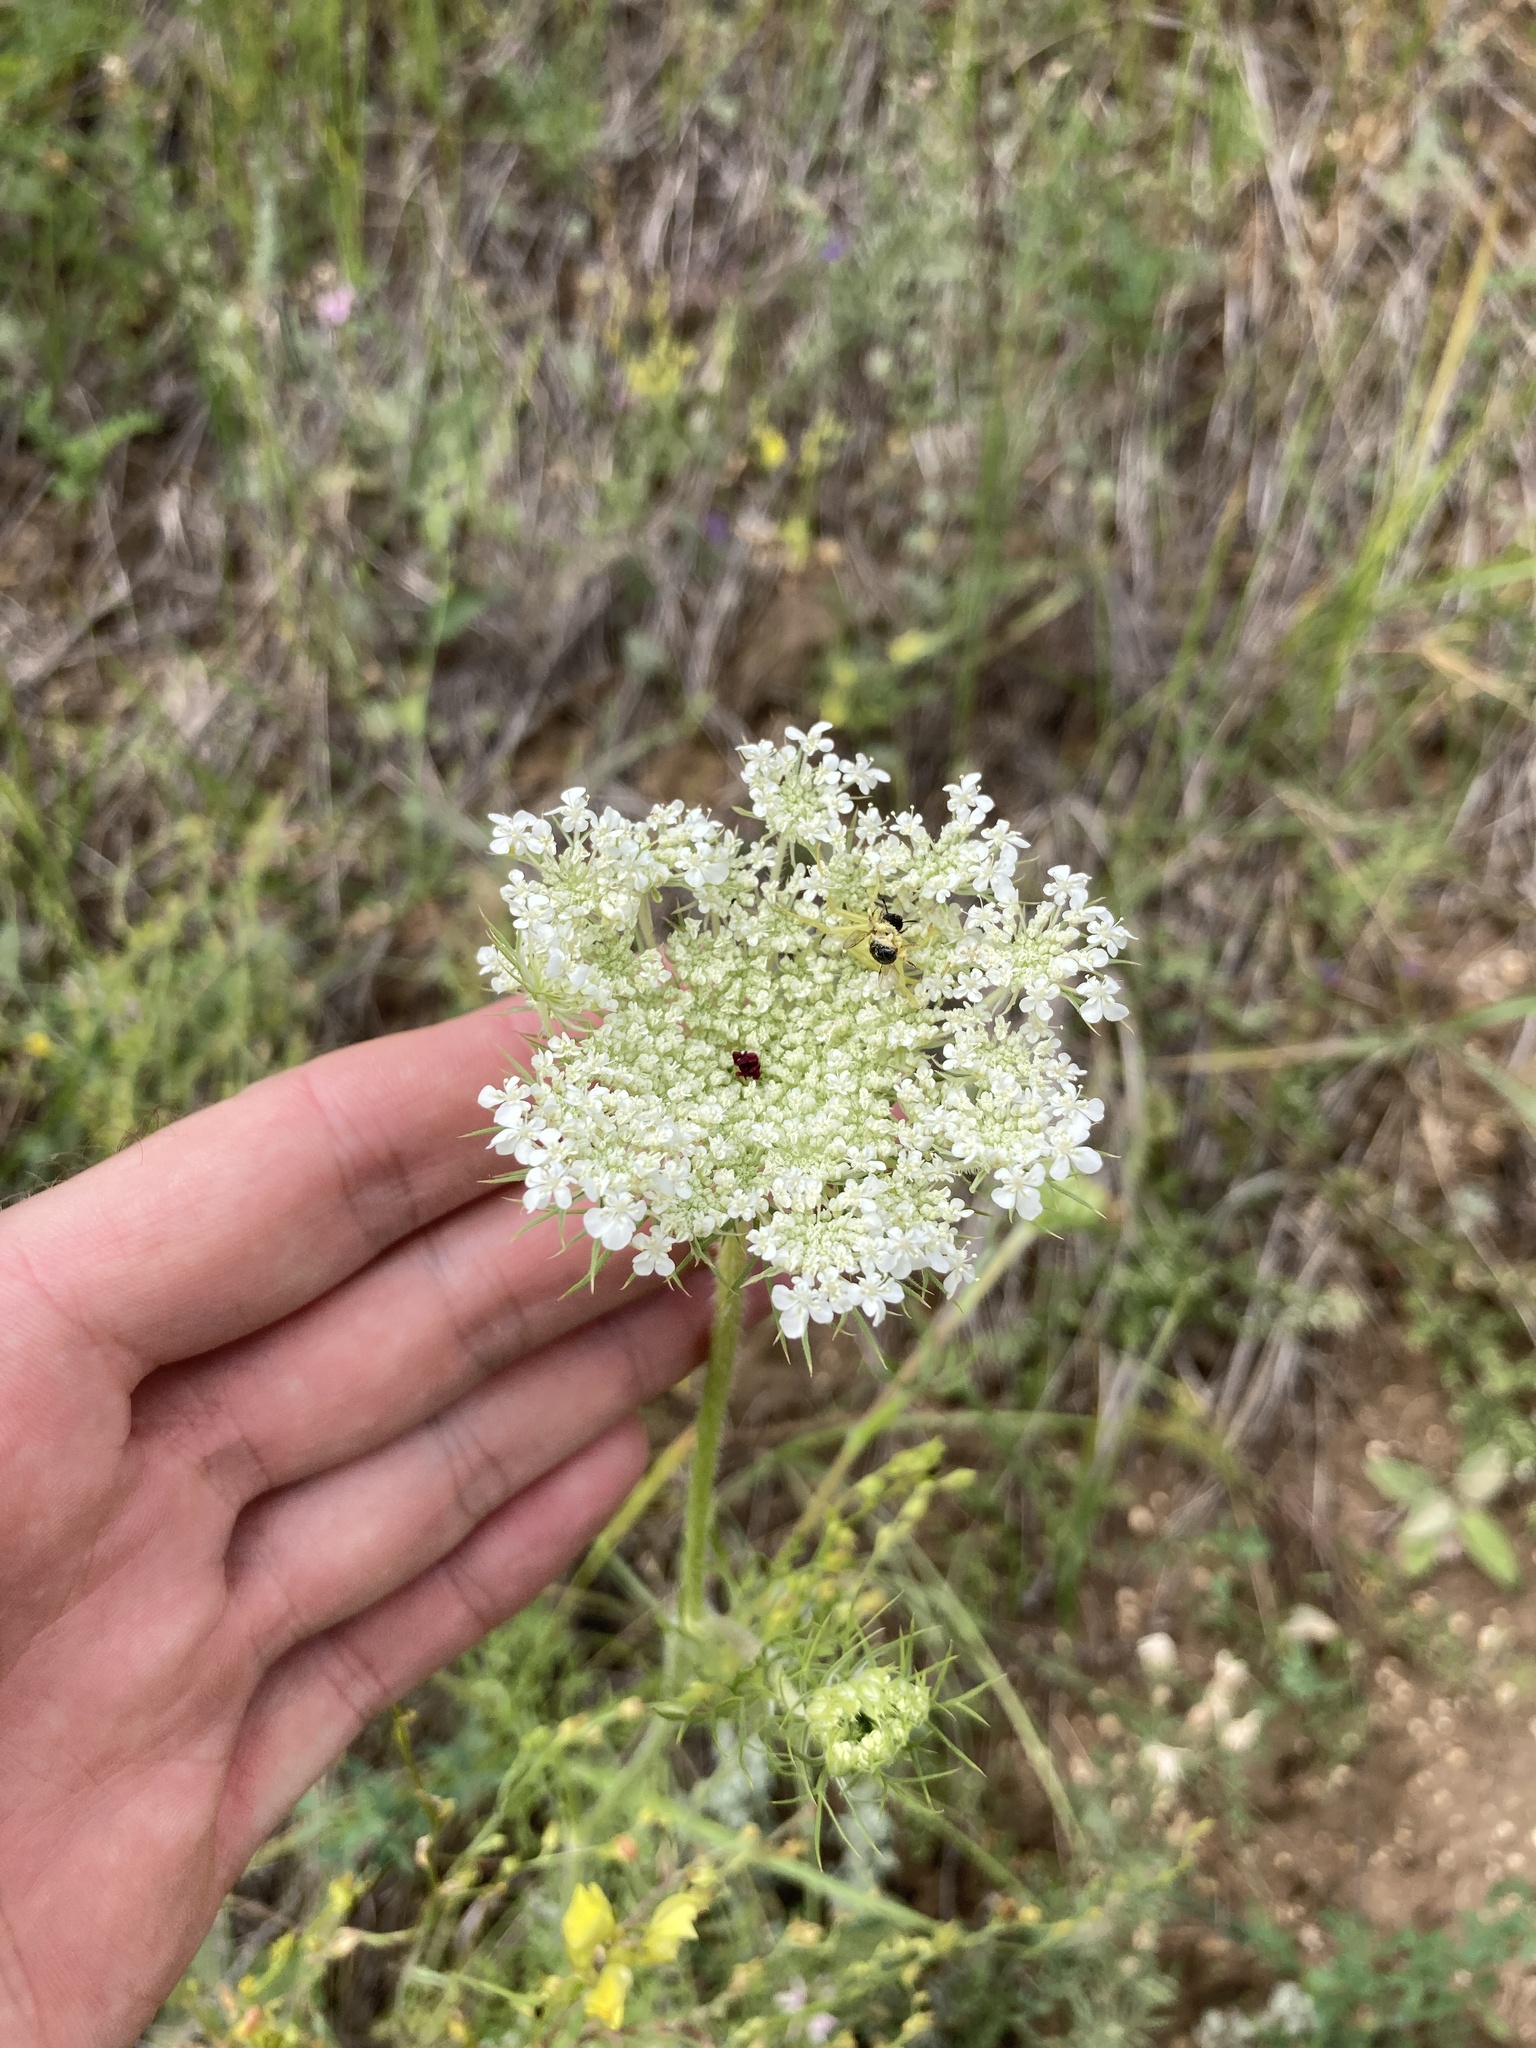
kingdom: Plantae
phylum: Tracheophyta
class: Magnoliopsida
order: Apiales
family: Apiaceae
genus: Daucus
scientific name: Daucus carota
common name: Wild carrot
